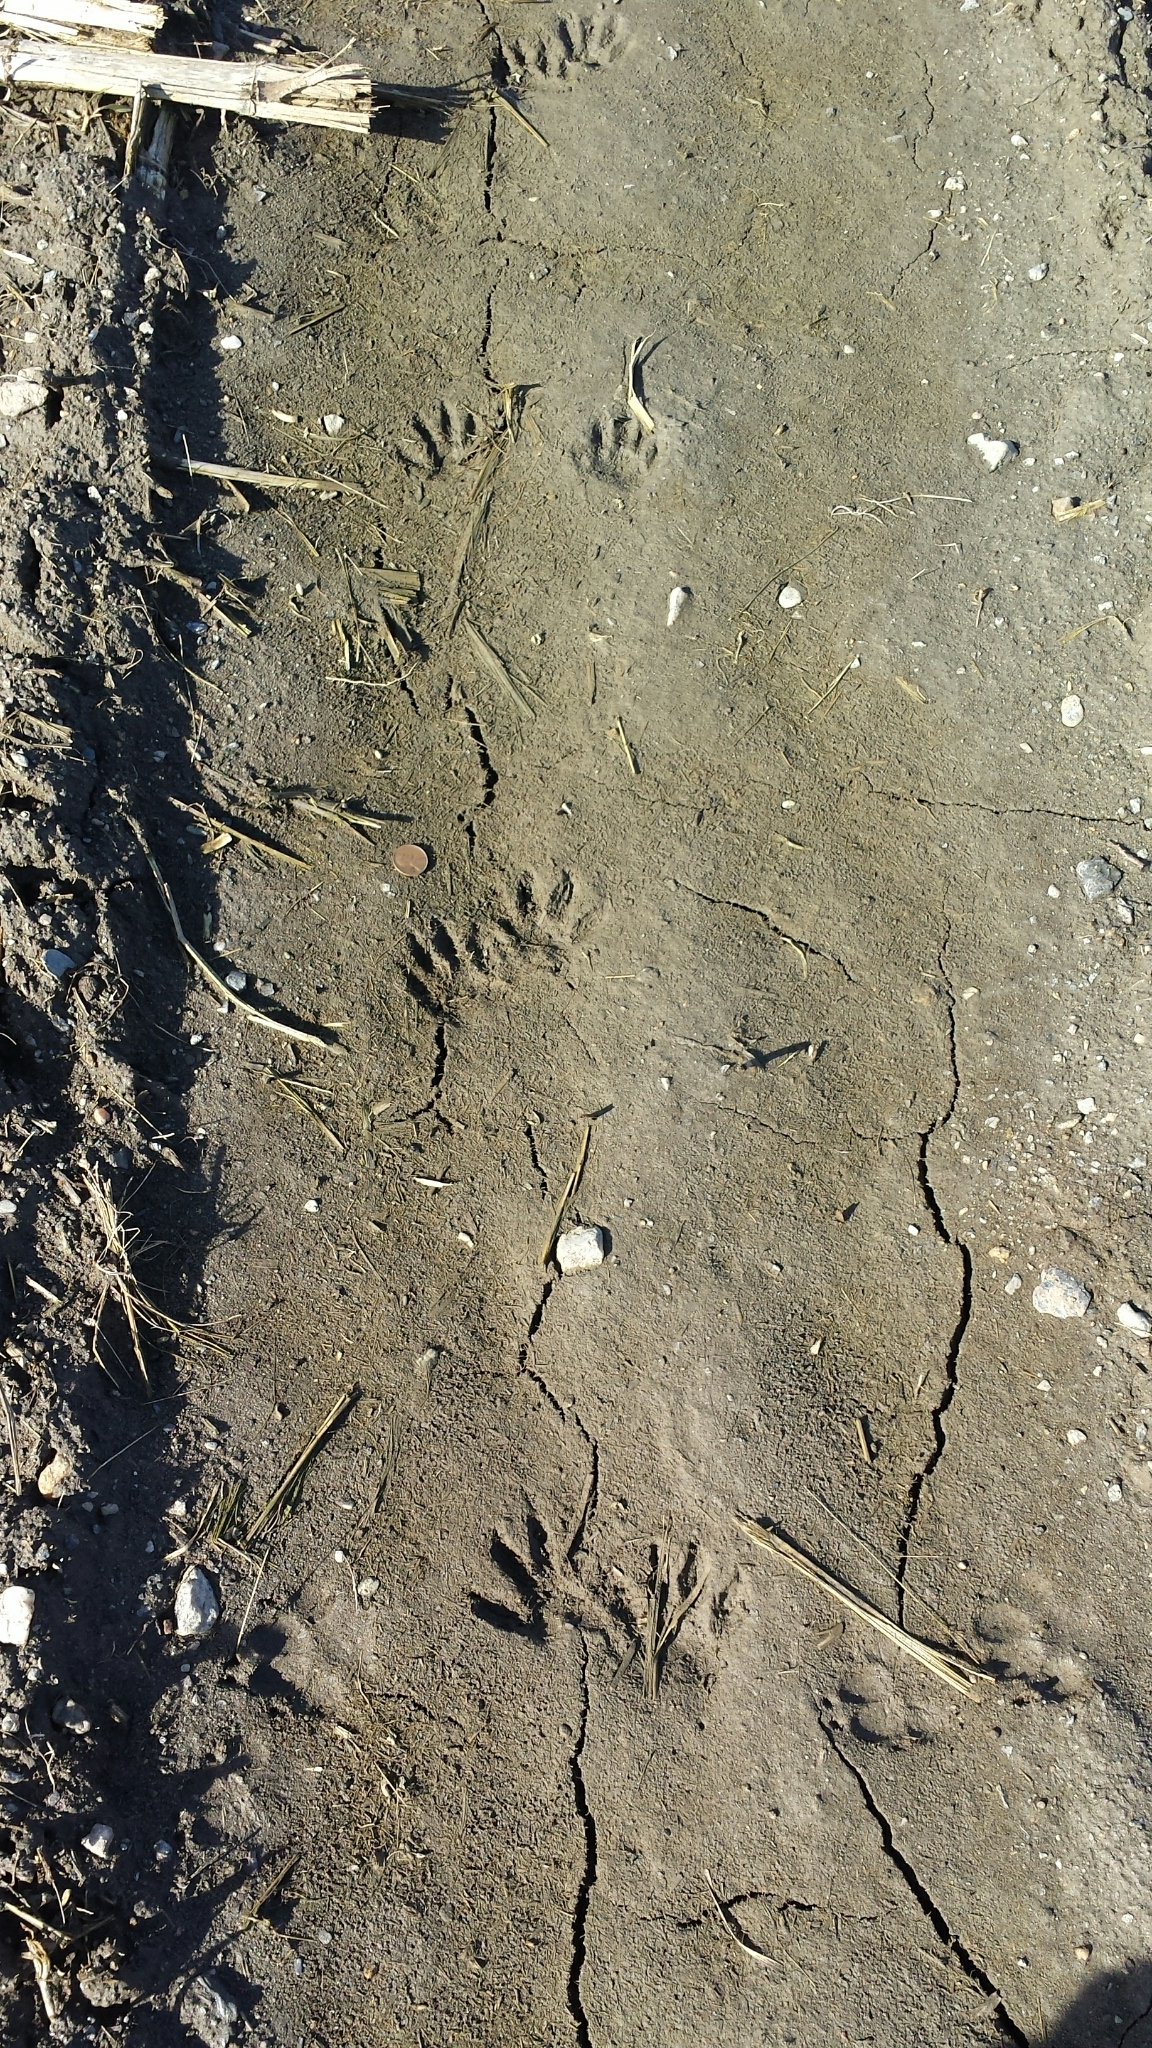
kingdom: Animalia
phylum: Chordata
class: Mammalia
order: Carnivora
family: Procyonidae
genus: Procyon
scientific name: Procyon lotor
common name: Raccoon
